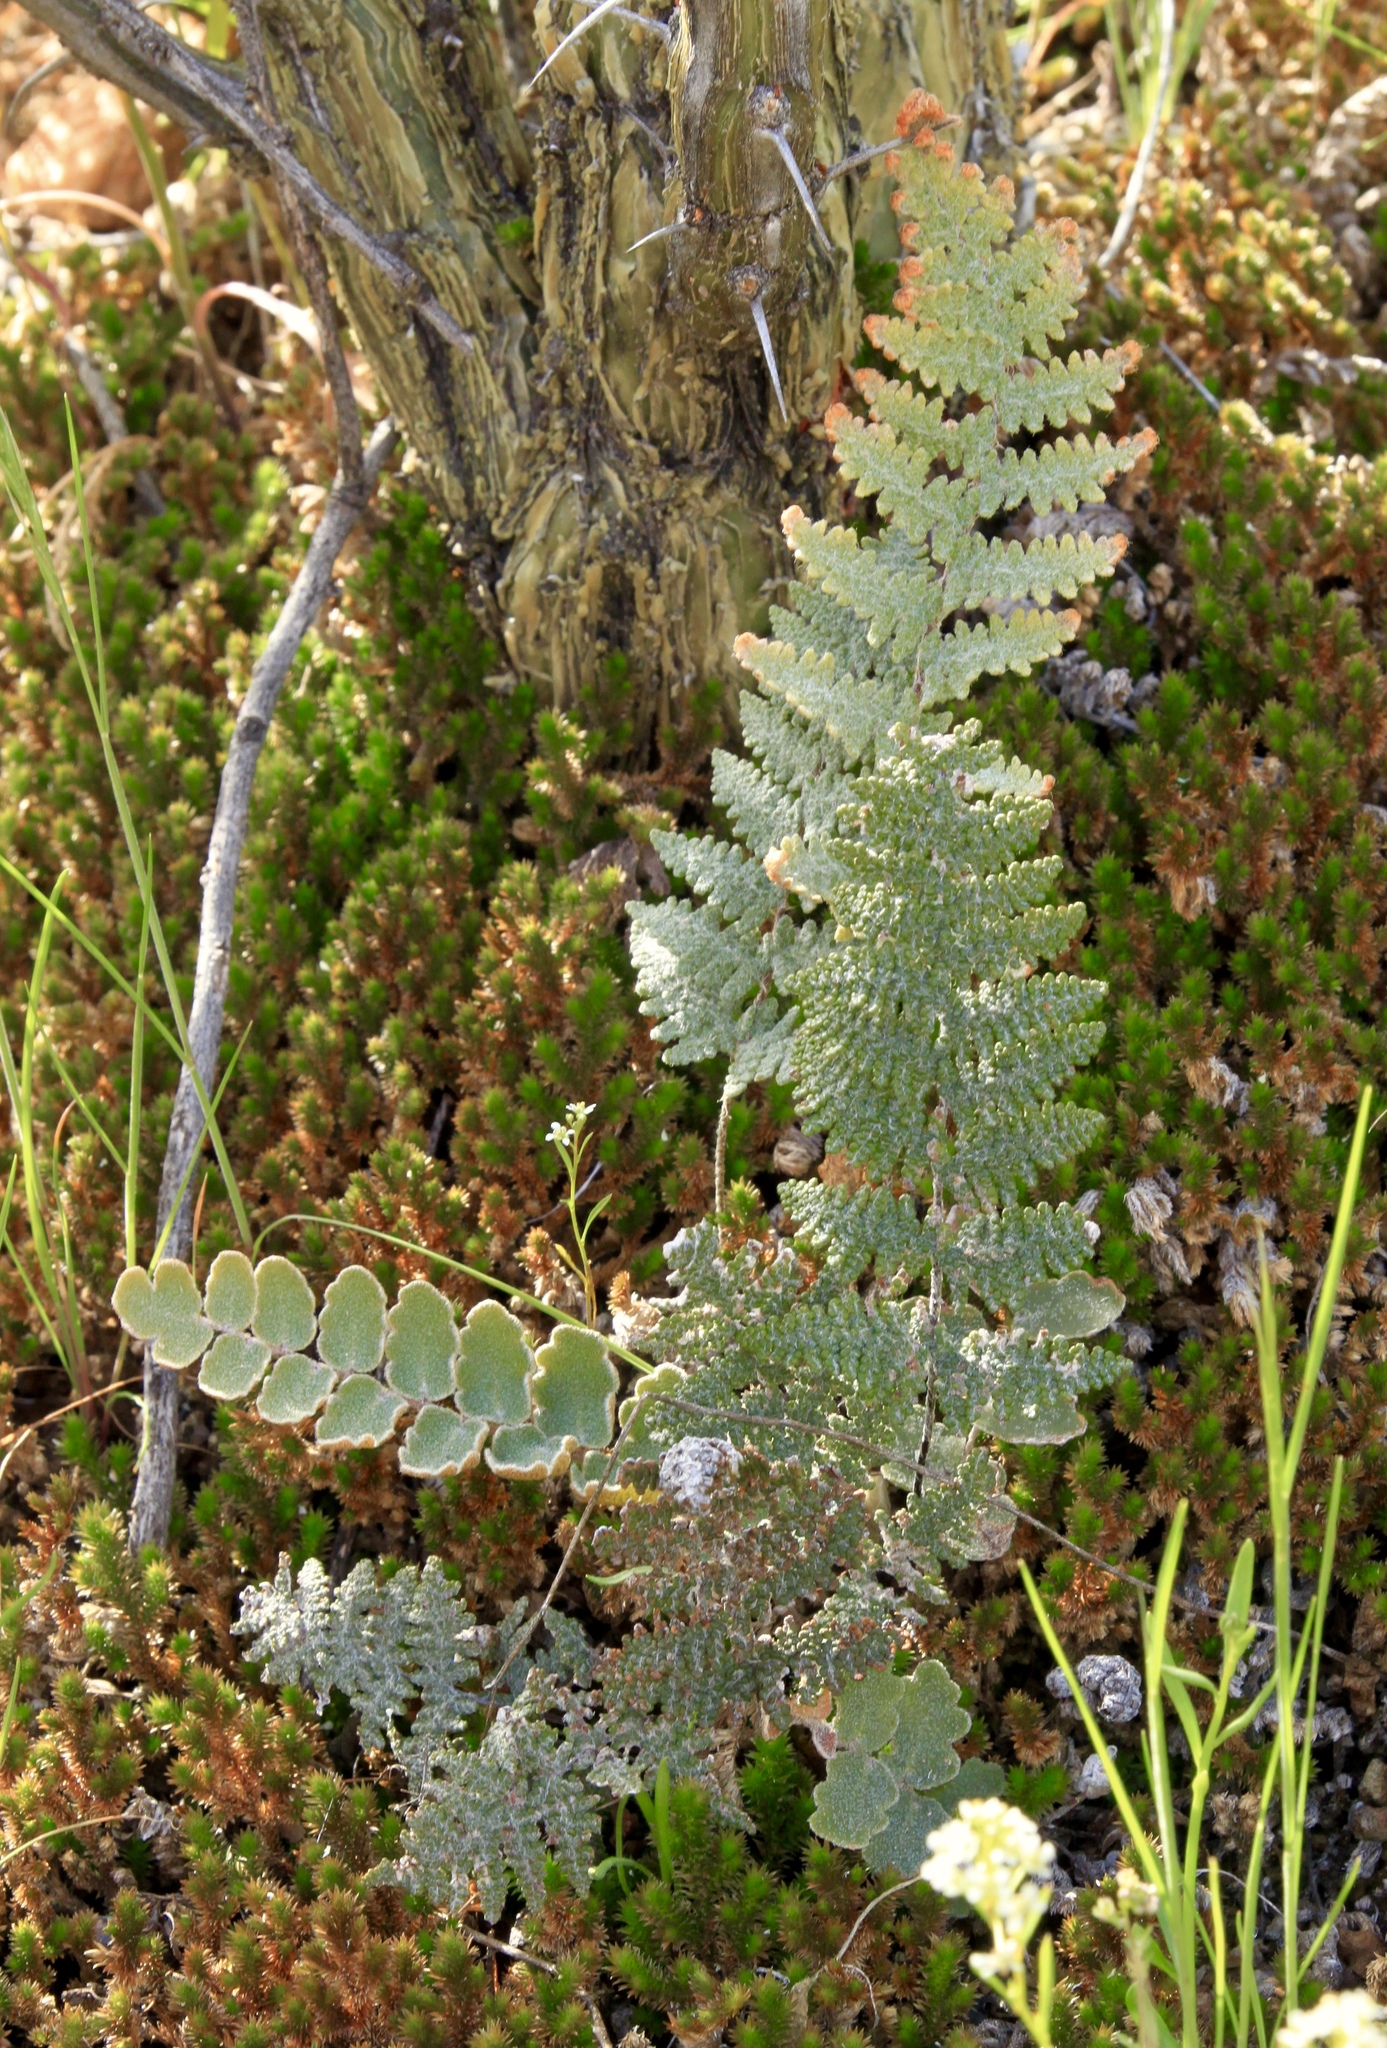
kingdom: Plantae
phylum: Tracheophyta
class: Polypodiopsida
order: Polypodiales
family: Pteridaceae
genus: Myriopteris
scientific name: Myriopteris lindheimeri
